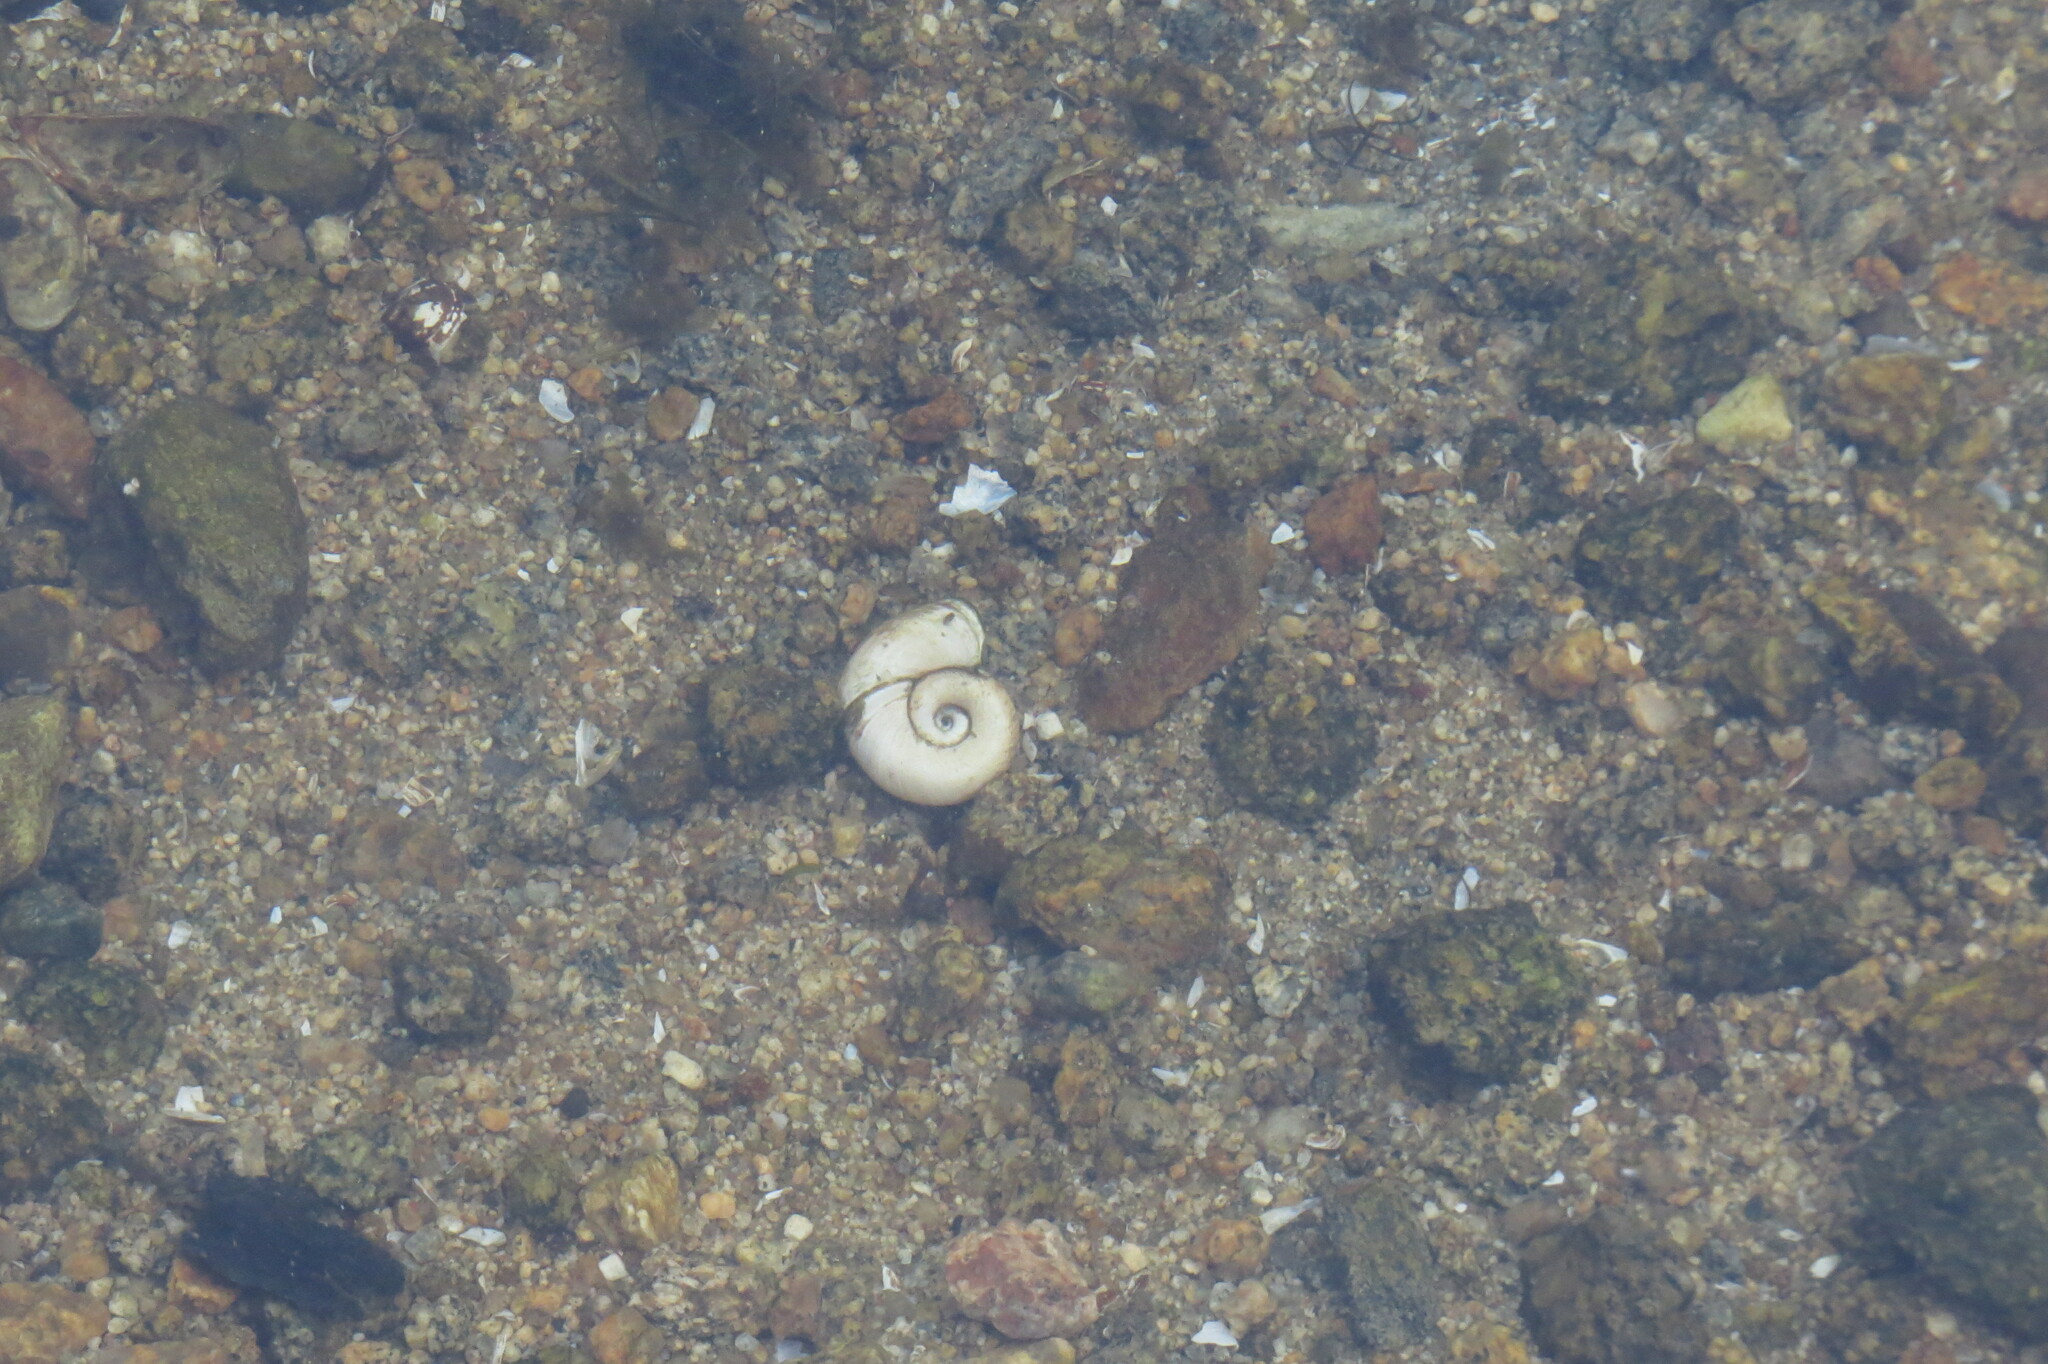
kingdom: Animalia
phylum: Mollusca
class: Gastropoda
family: Planorbidae
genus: Planorbarius
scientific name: Planorbarius corneus
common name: Great ramshorn
